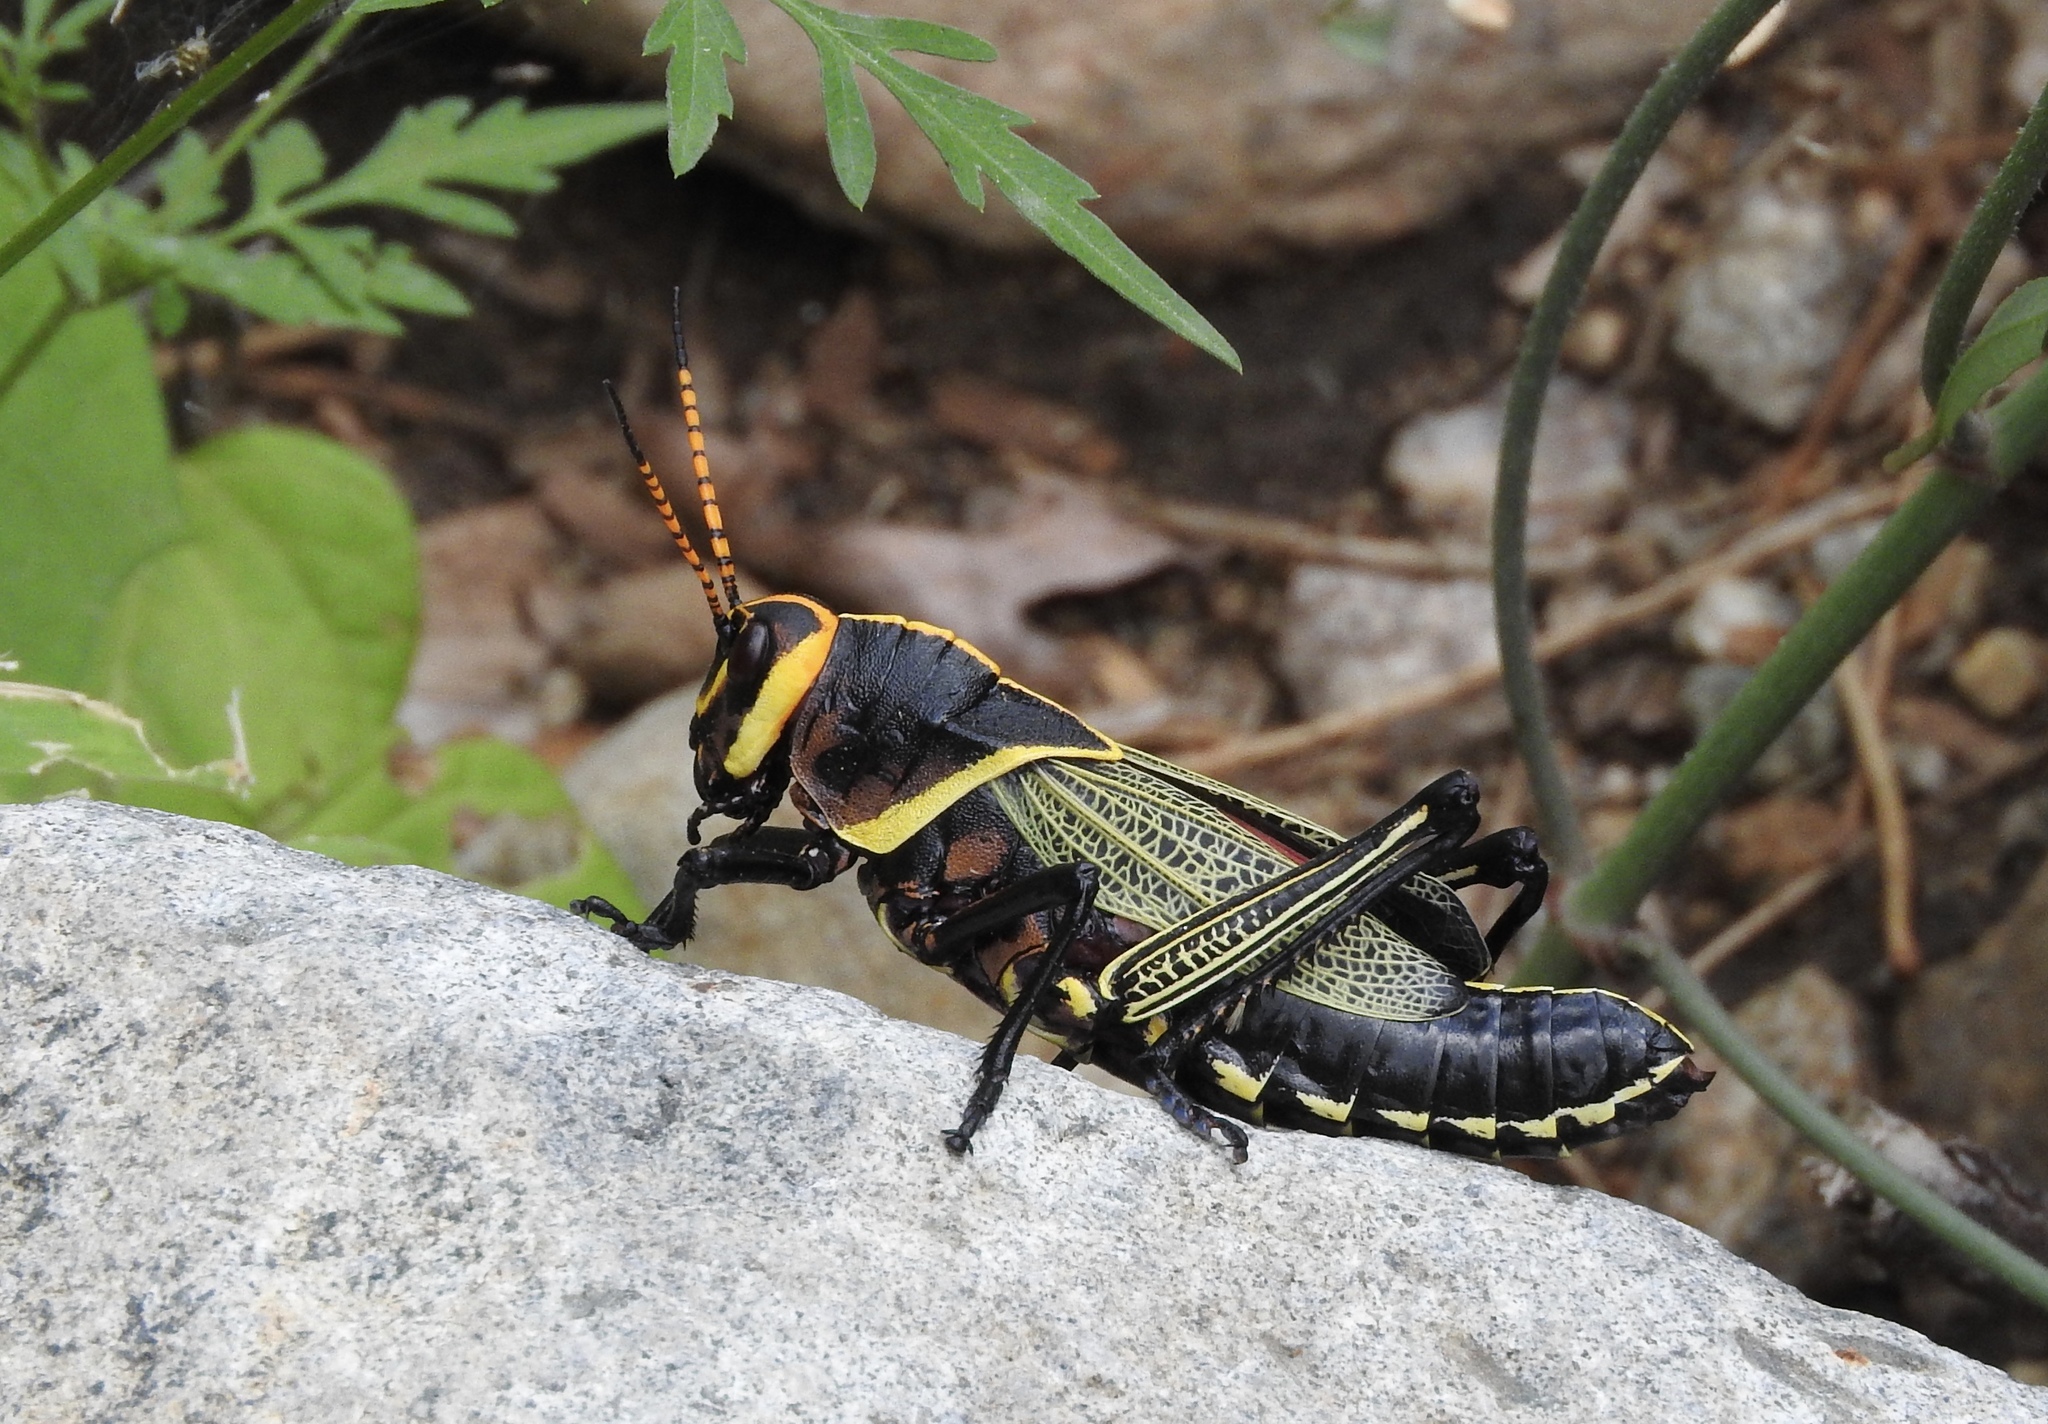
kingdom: Animalia
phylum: Arthropoda
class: Insecta
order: Orthoptera
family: Romaleidae
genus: Romalea
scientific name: Romalea
